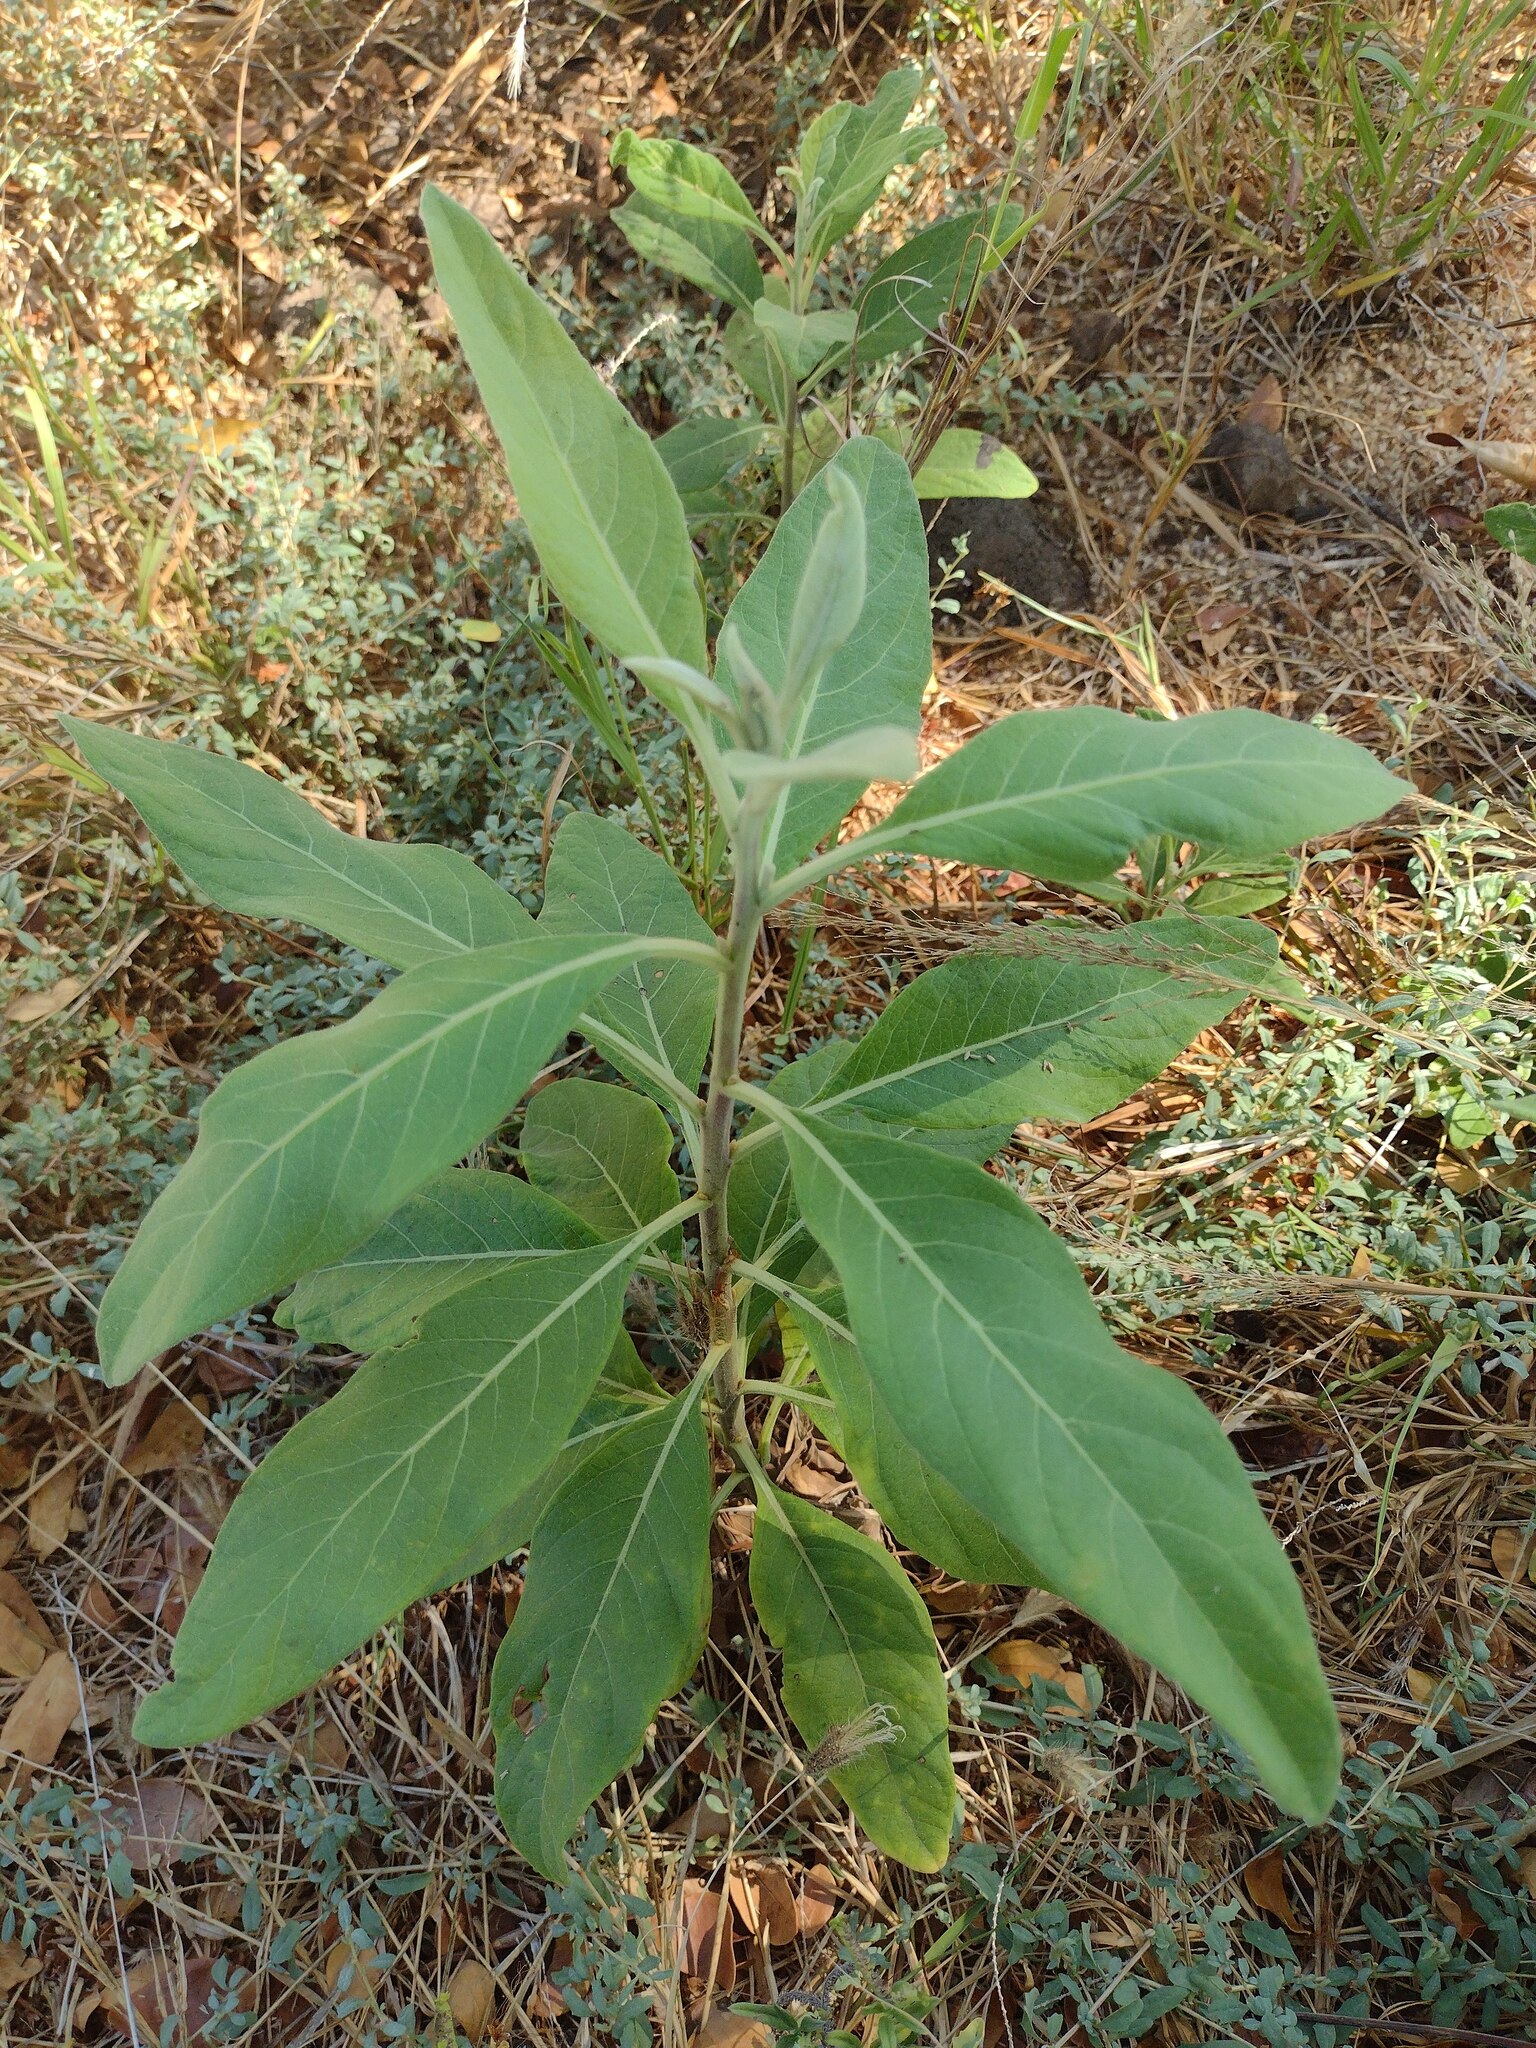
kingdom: Plantae
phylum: Tracheophyta
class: Magnoliopsida
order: Asterales
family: Asteraceae
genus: Pluchea
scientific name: Pluchea carolinensis
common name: Marsh fleabane
